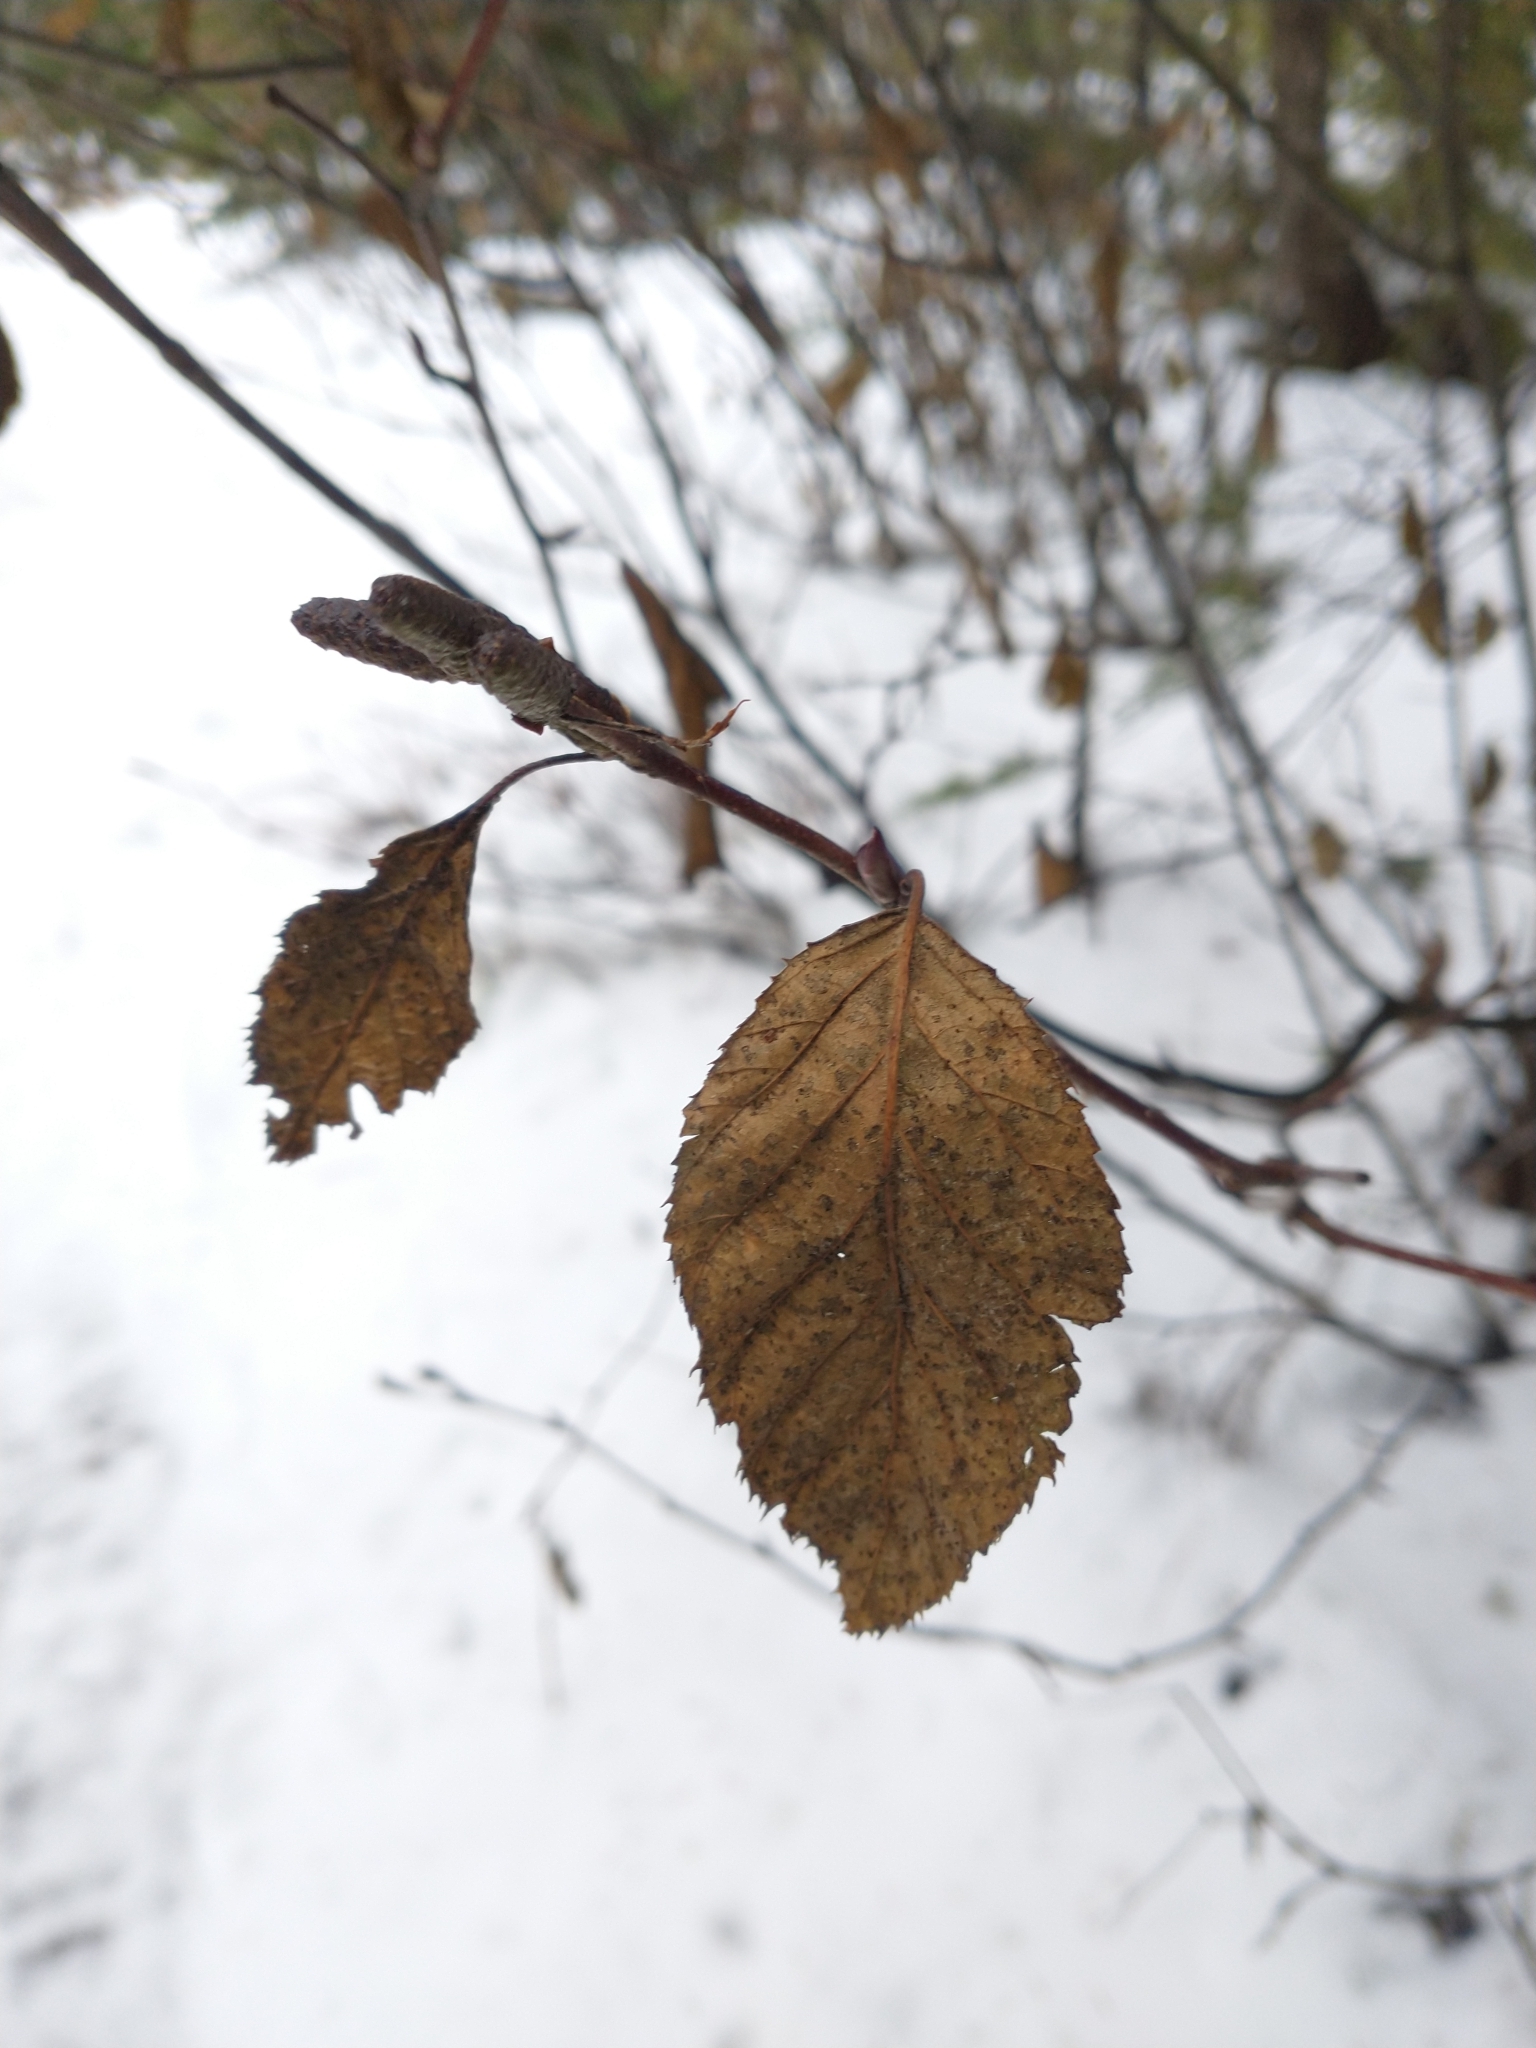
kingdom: Plantae
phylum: Tracheophyta
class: Magnoliopsida
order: Fagales
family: Betulaceae
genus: Alnus
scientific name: Alnus alnobetula
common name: Green alder
